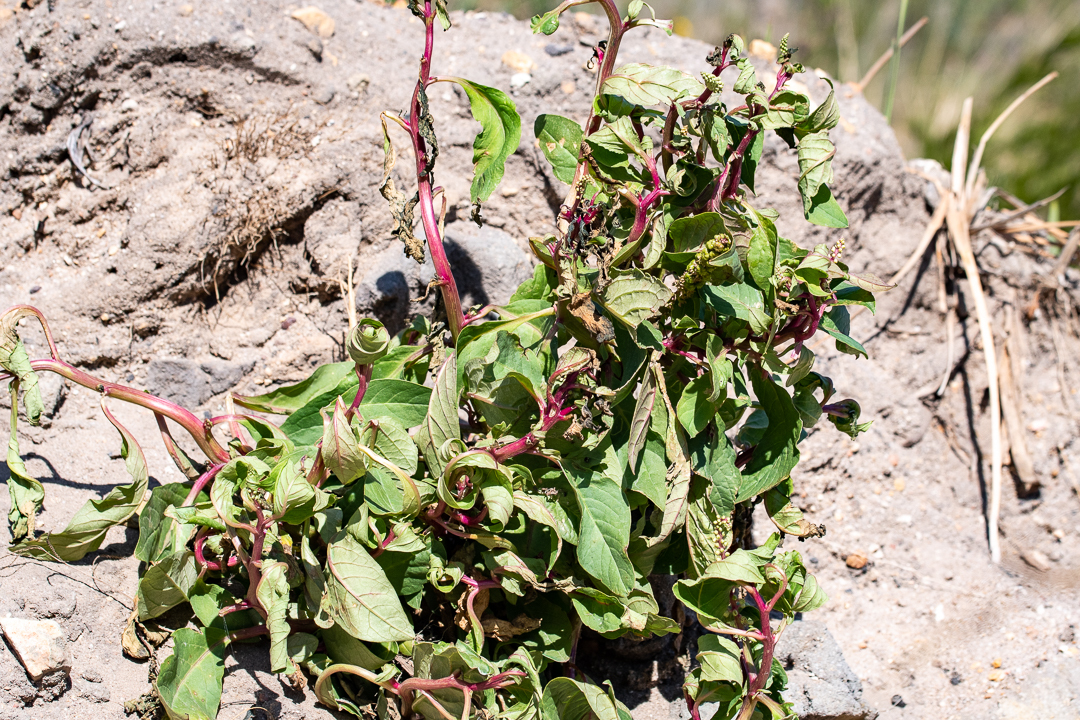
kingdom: Plantae
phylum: Tracheophyta
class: Magnoliopsida
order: Caryophyllales
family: Phytolaccaceae
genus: Phytolacca
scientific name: Phytolacca icosandra
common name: Button pokeweed
